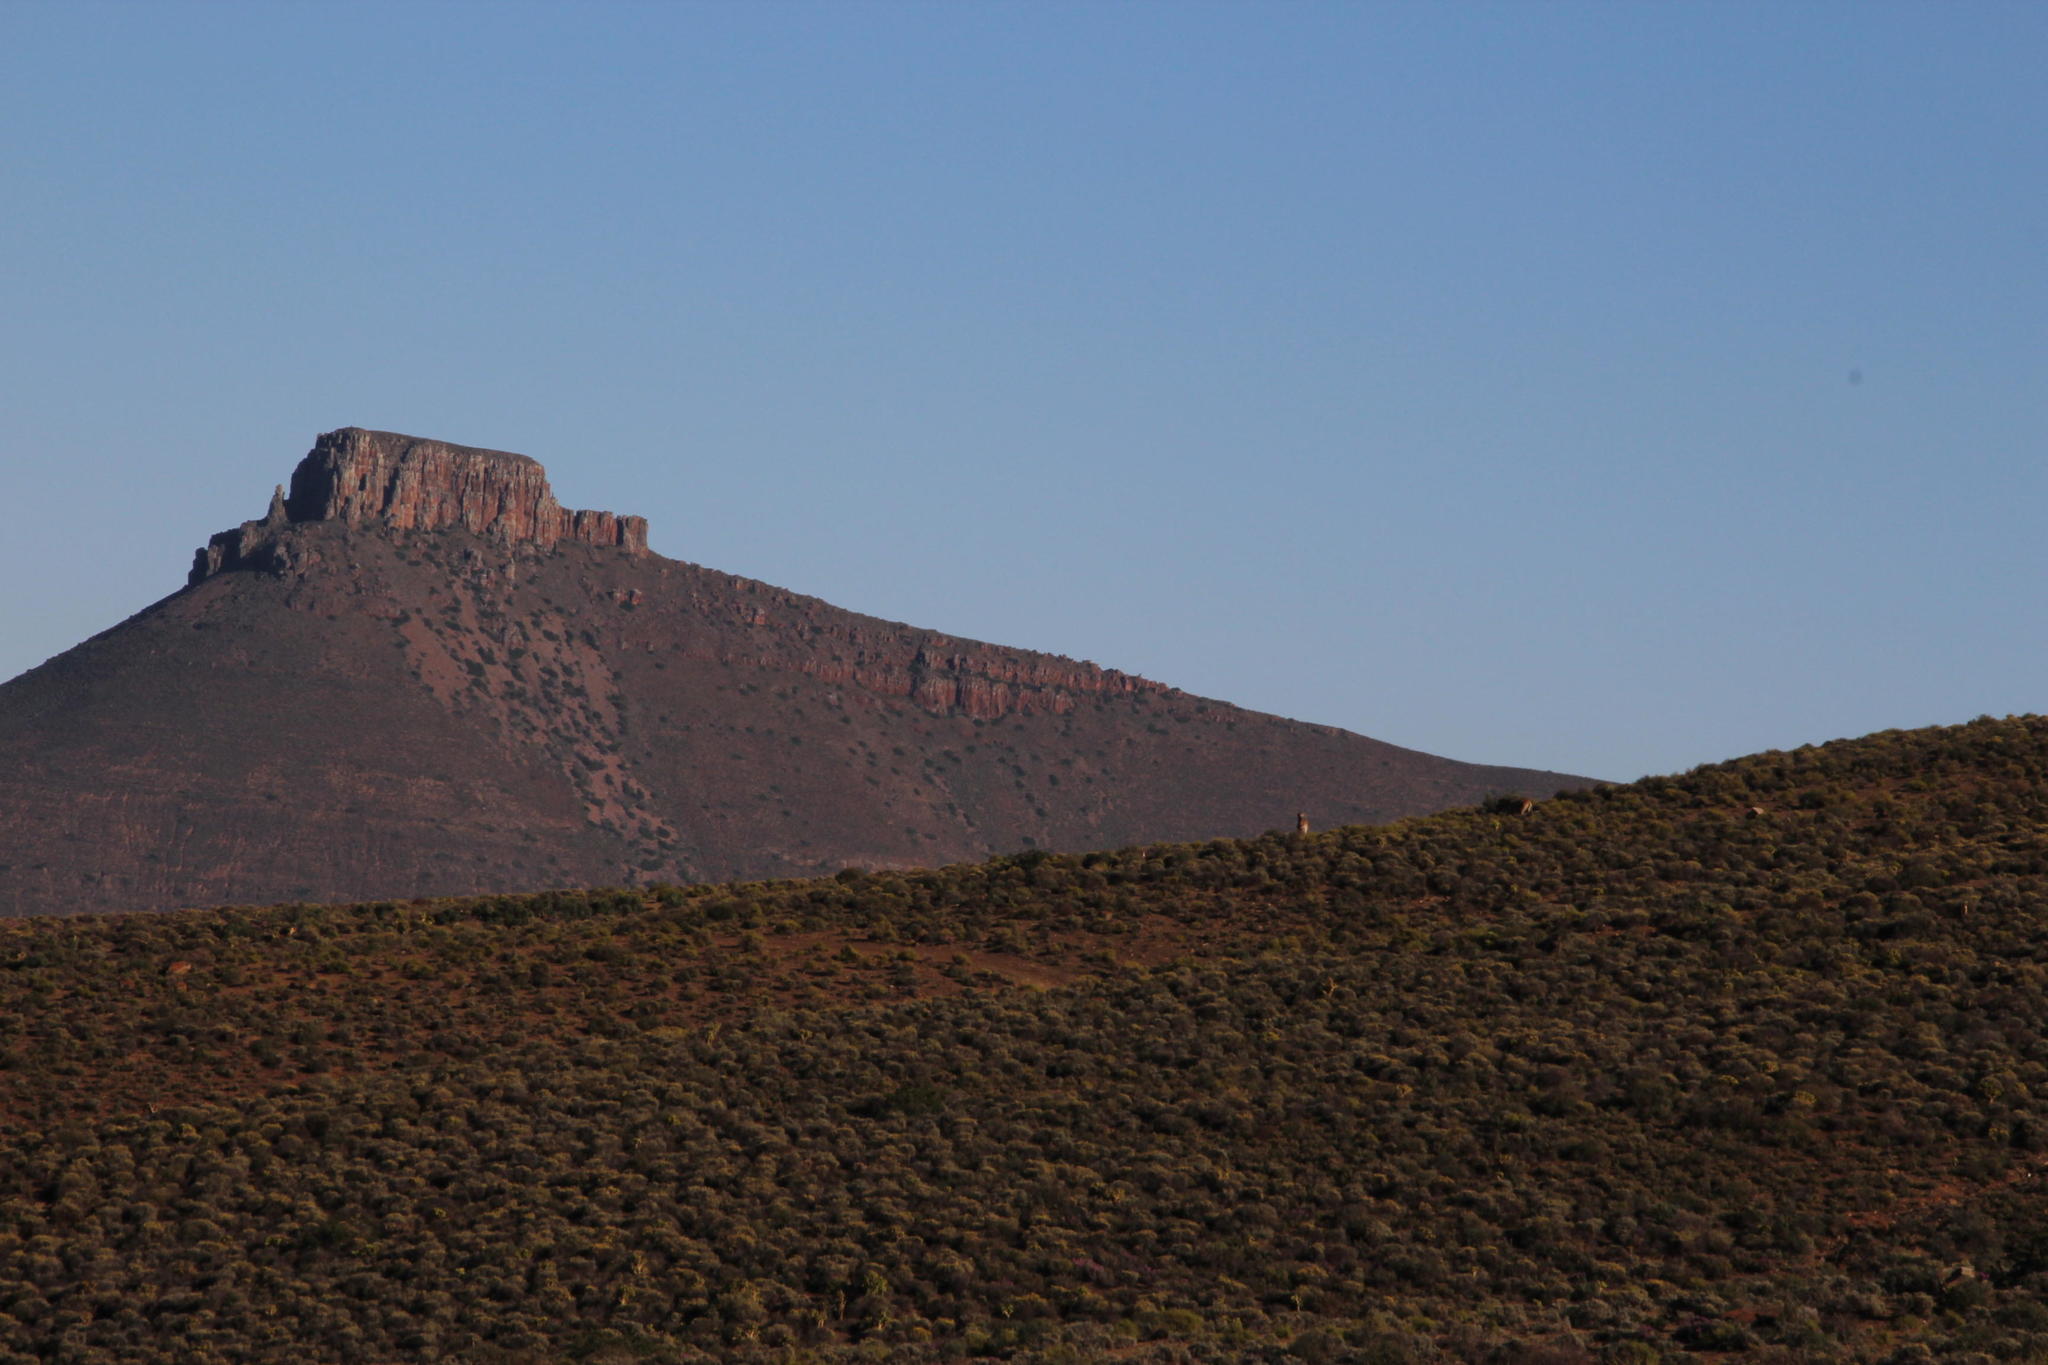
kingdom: Animalia
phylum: Chordata
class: Mammalia
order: Perissodactyla
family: Equidae
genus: Equus
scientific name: Equus quagga
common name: Plains zebra
